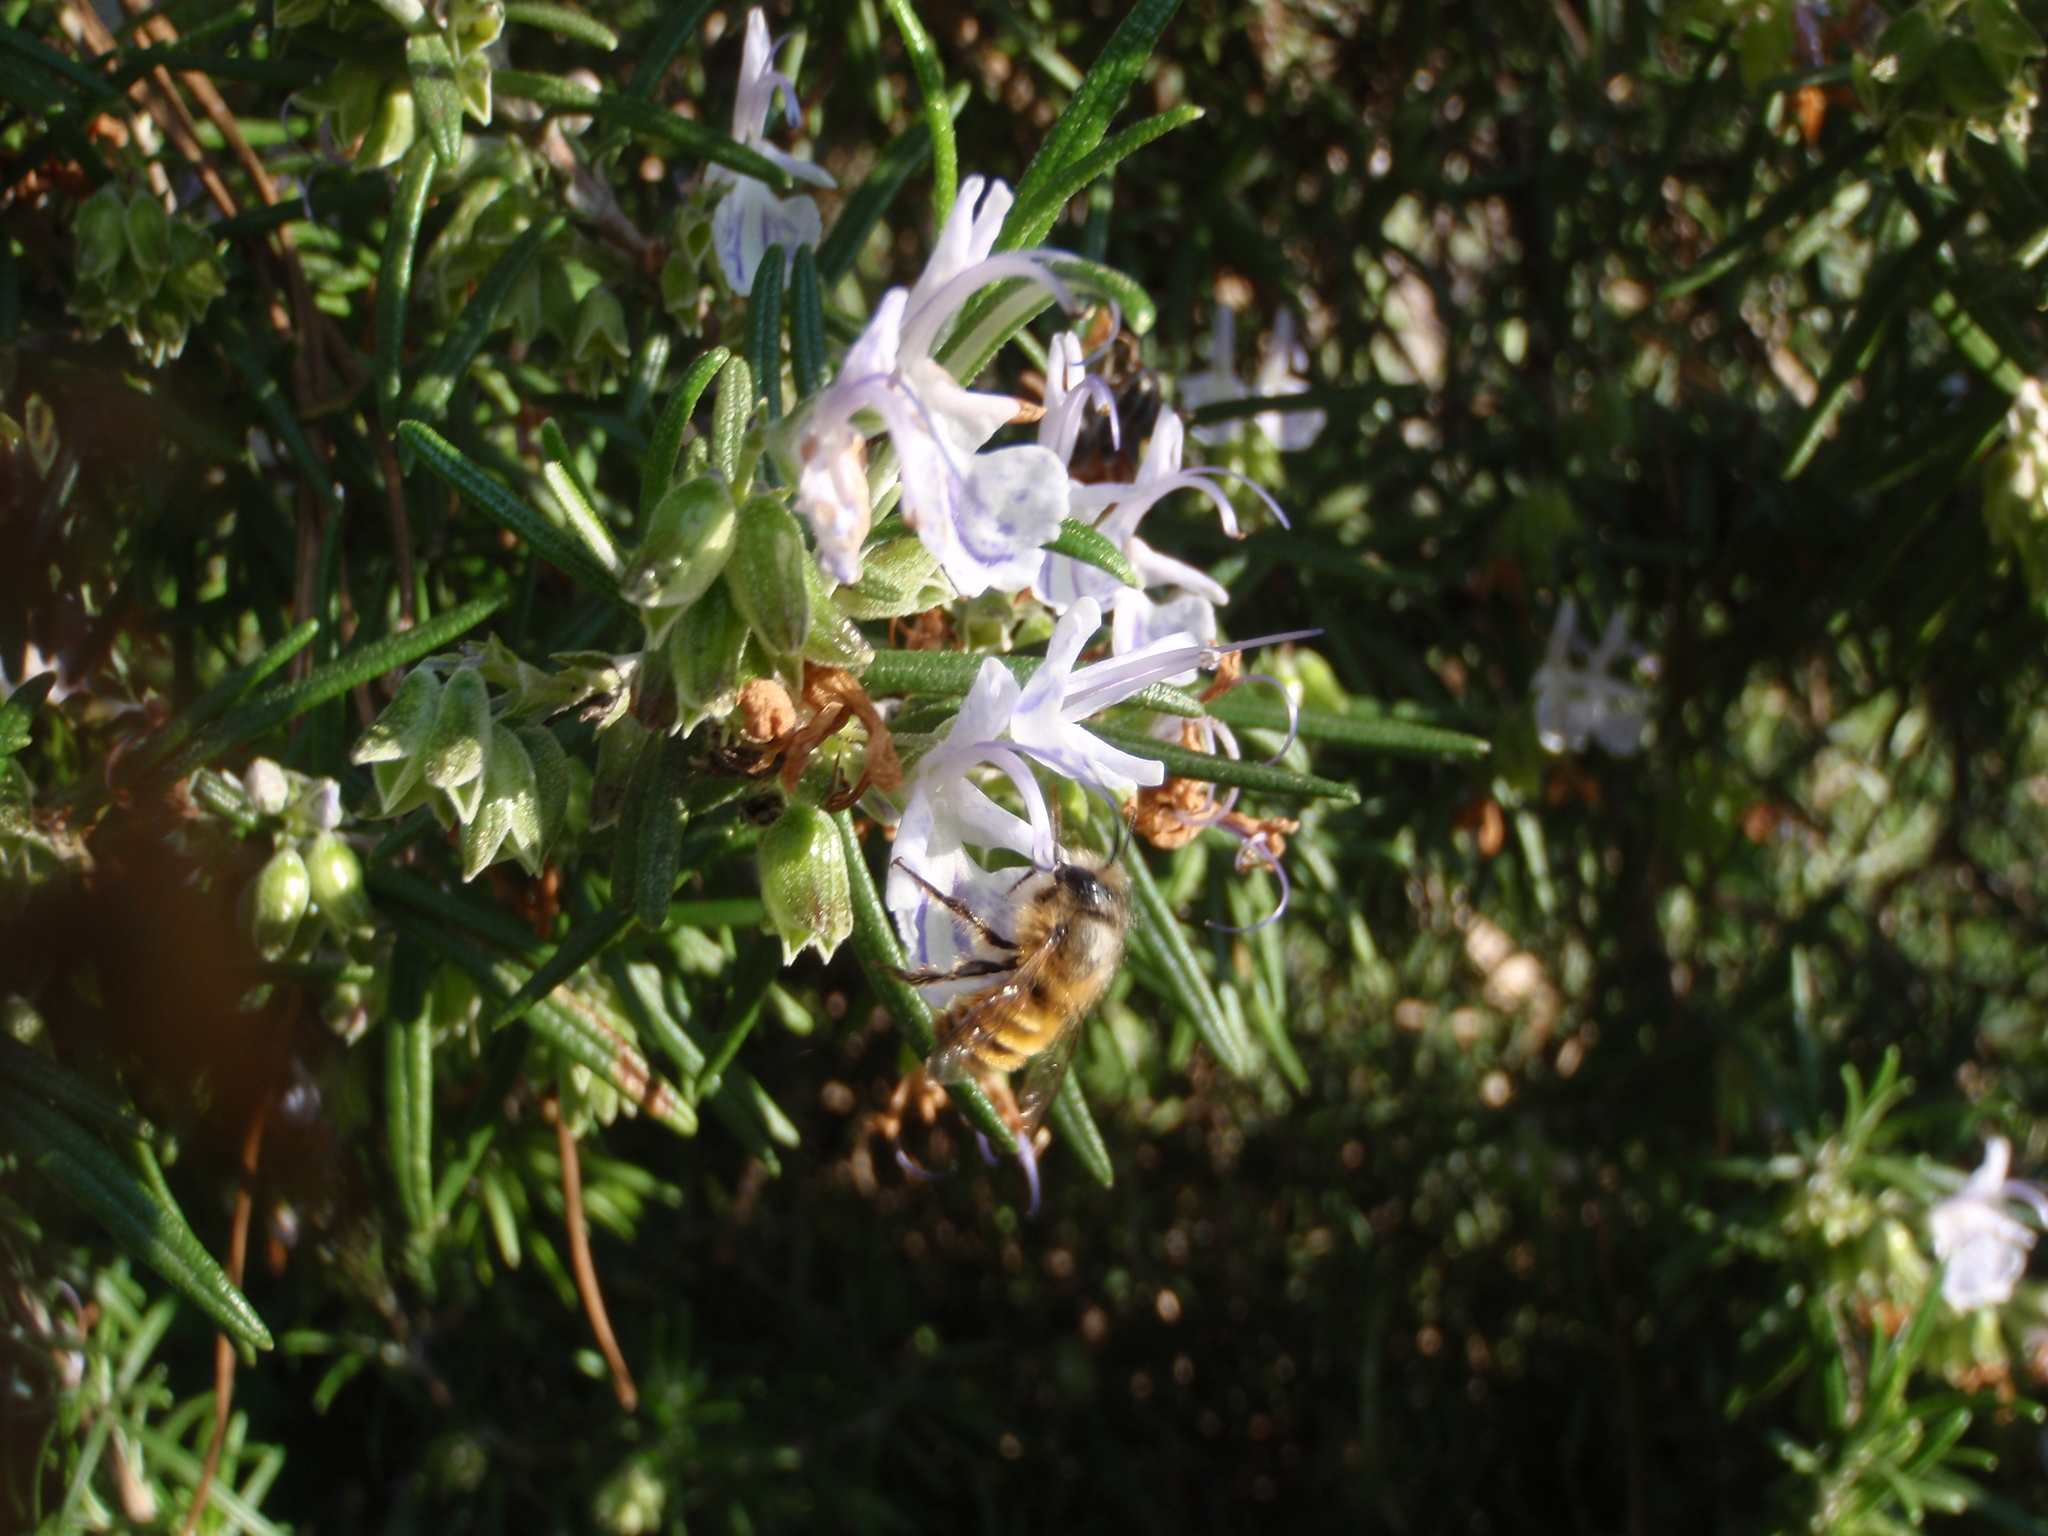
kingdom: Animalia
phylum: Arthropoda
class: Insecta
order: Hymenoptera
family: Megachilidae
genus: Osmia
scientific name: Osmia bicornis
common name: Red mason bee
